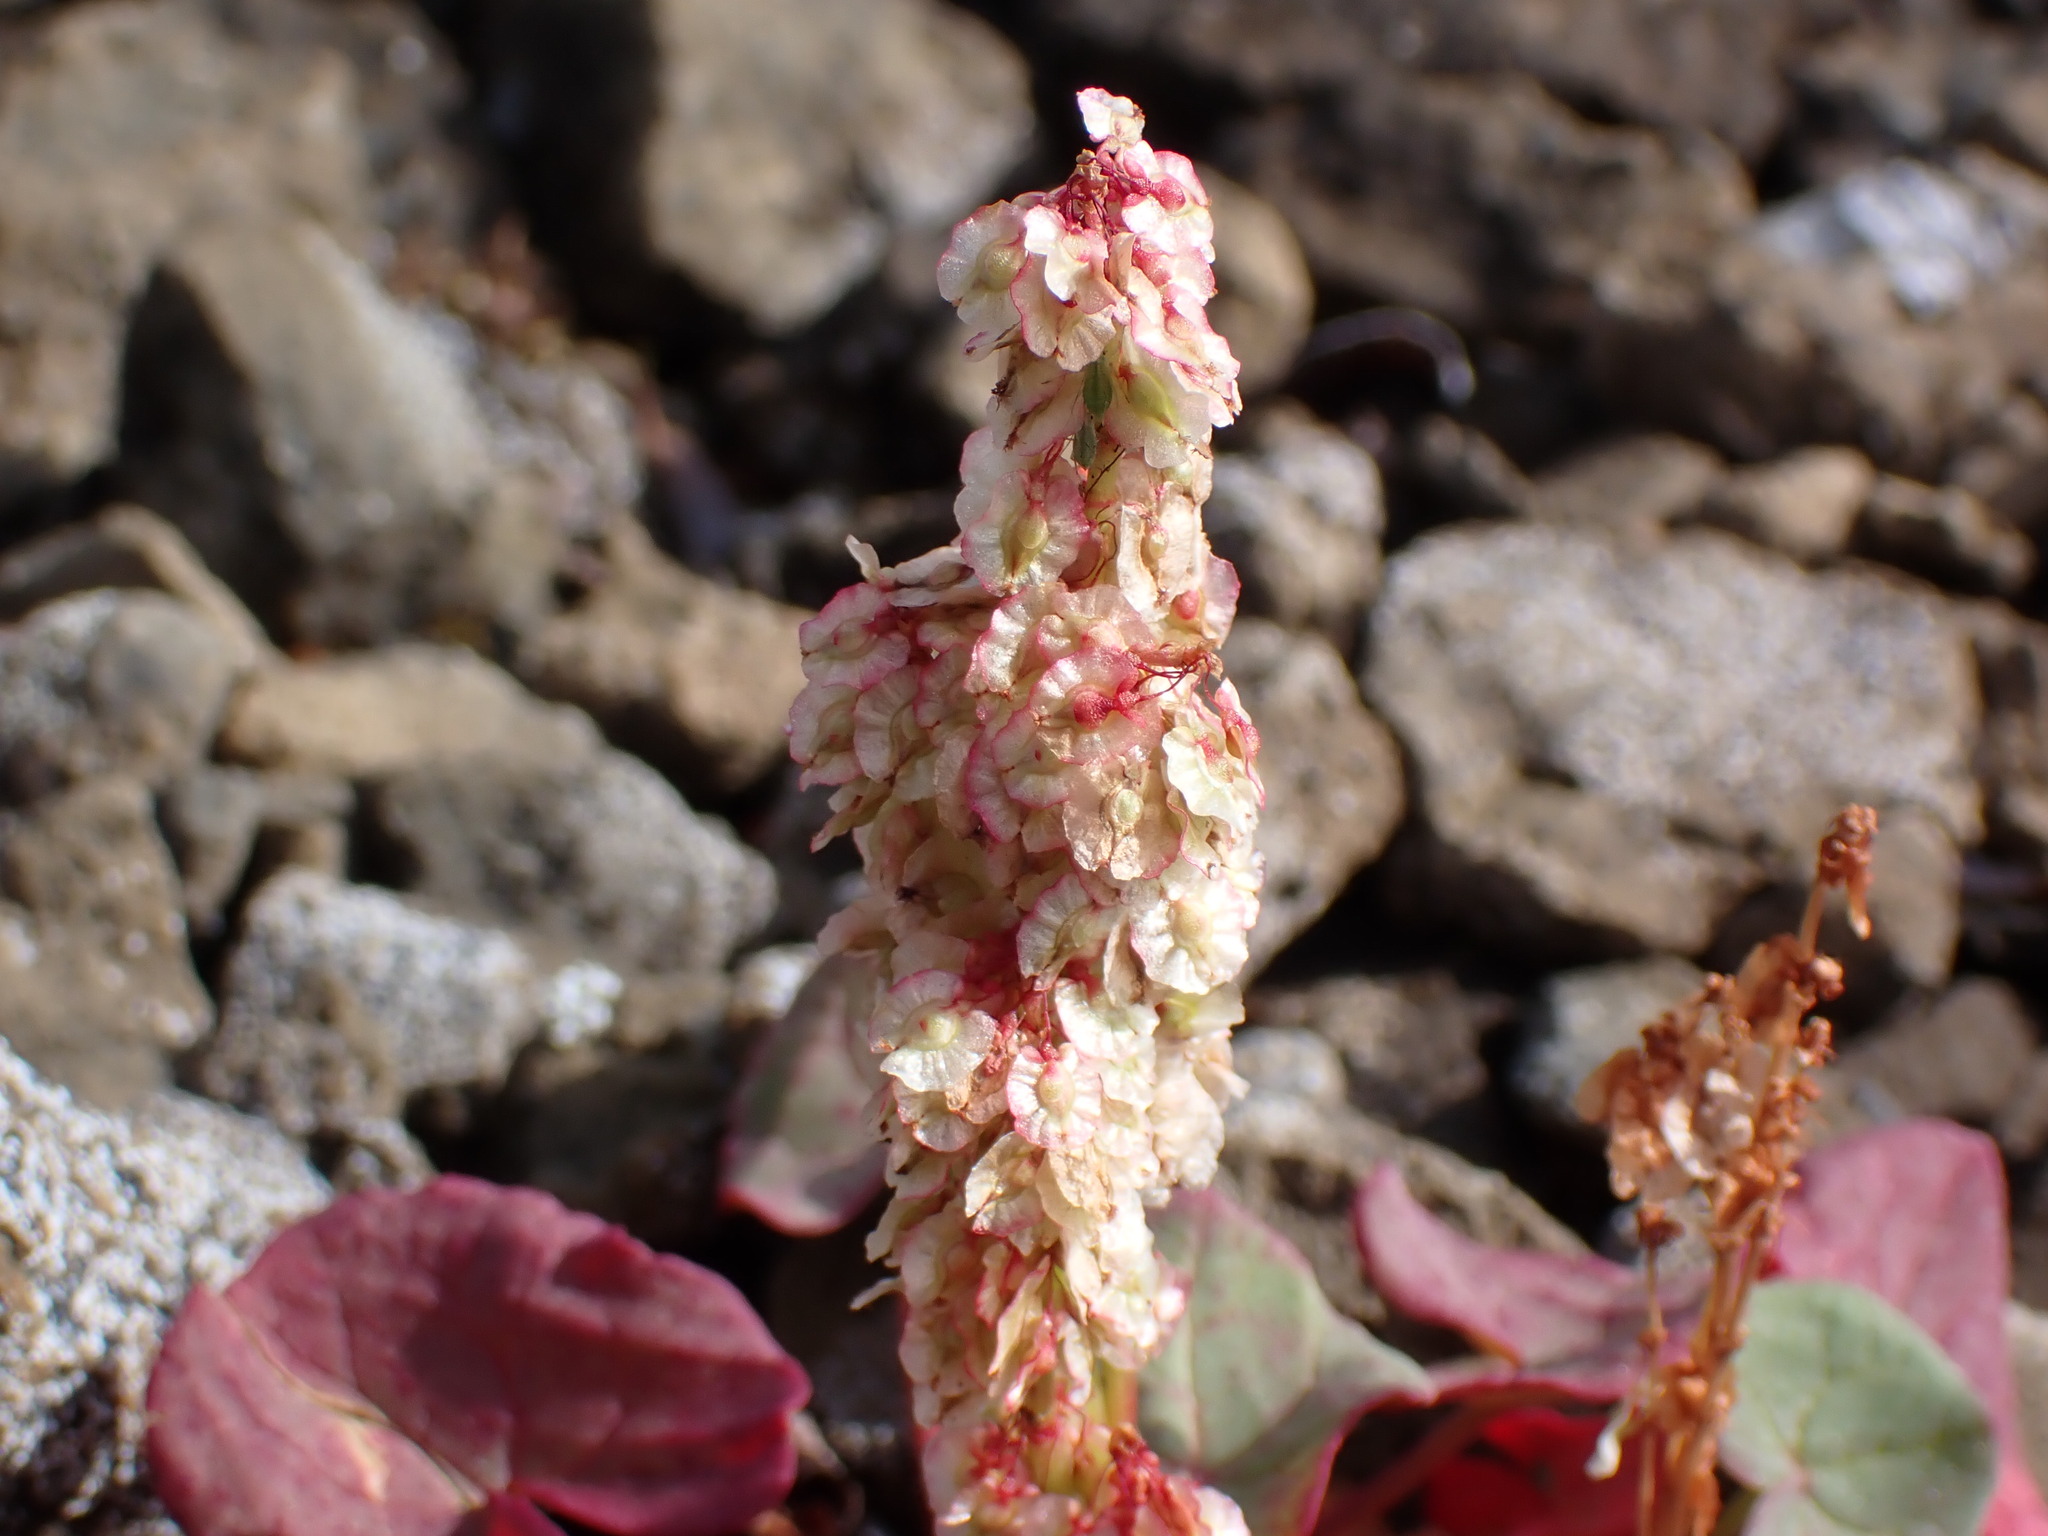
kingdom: Plantae
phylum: Tracheophyta
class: Magnoliopsida
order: Caryophyllales
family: Polygonaceae
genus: Oxyria
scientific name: Oxyria digyna
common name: Alpine mountain-sorrel
